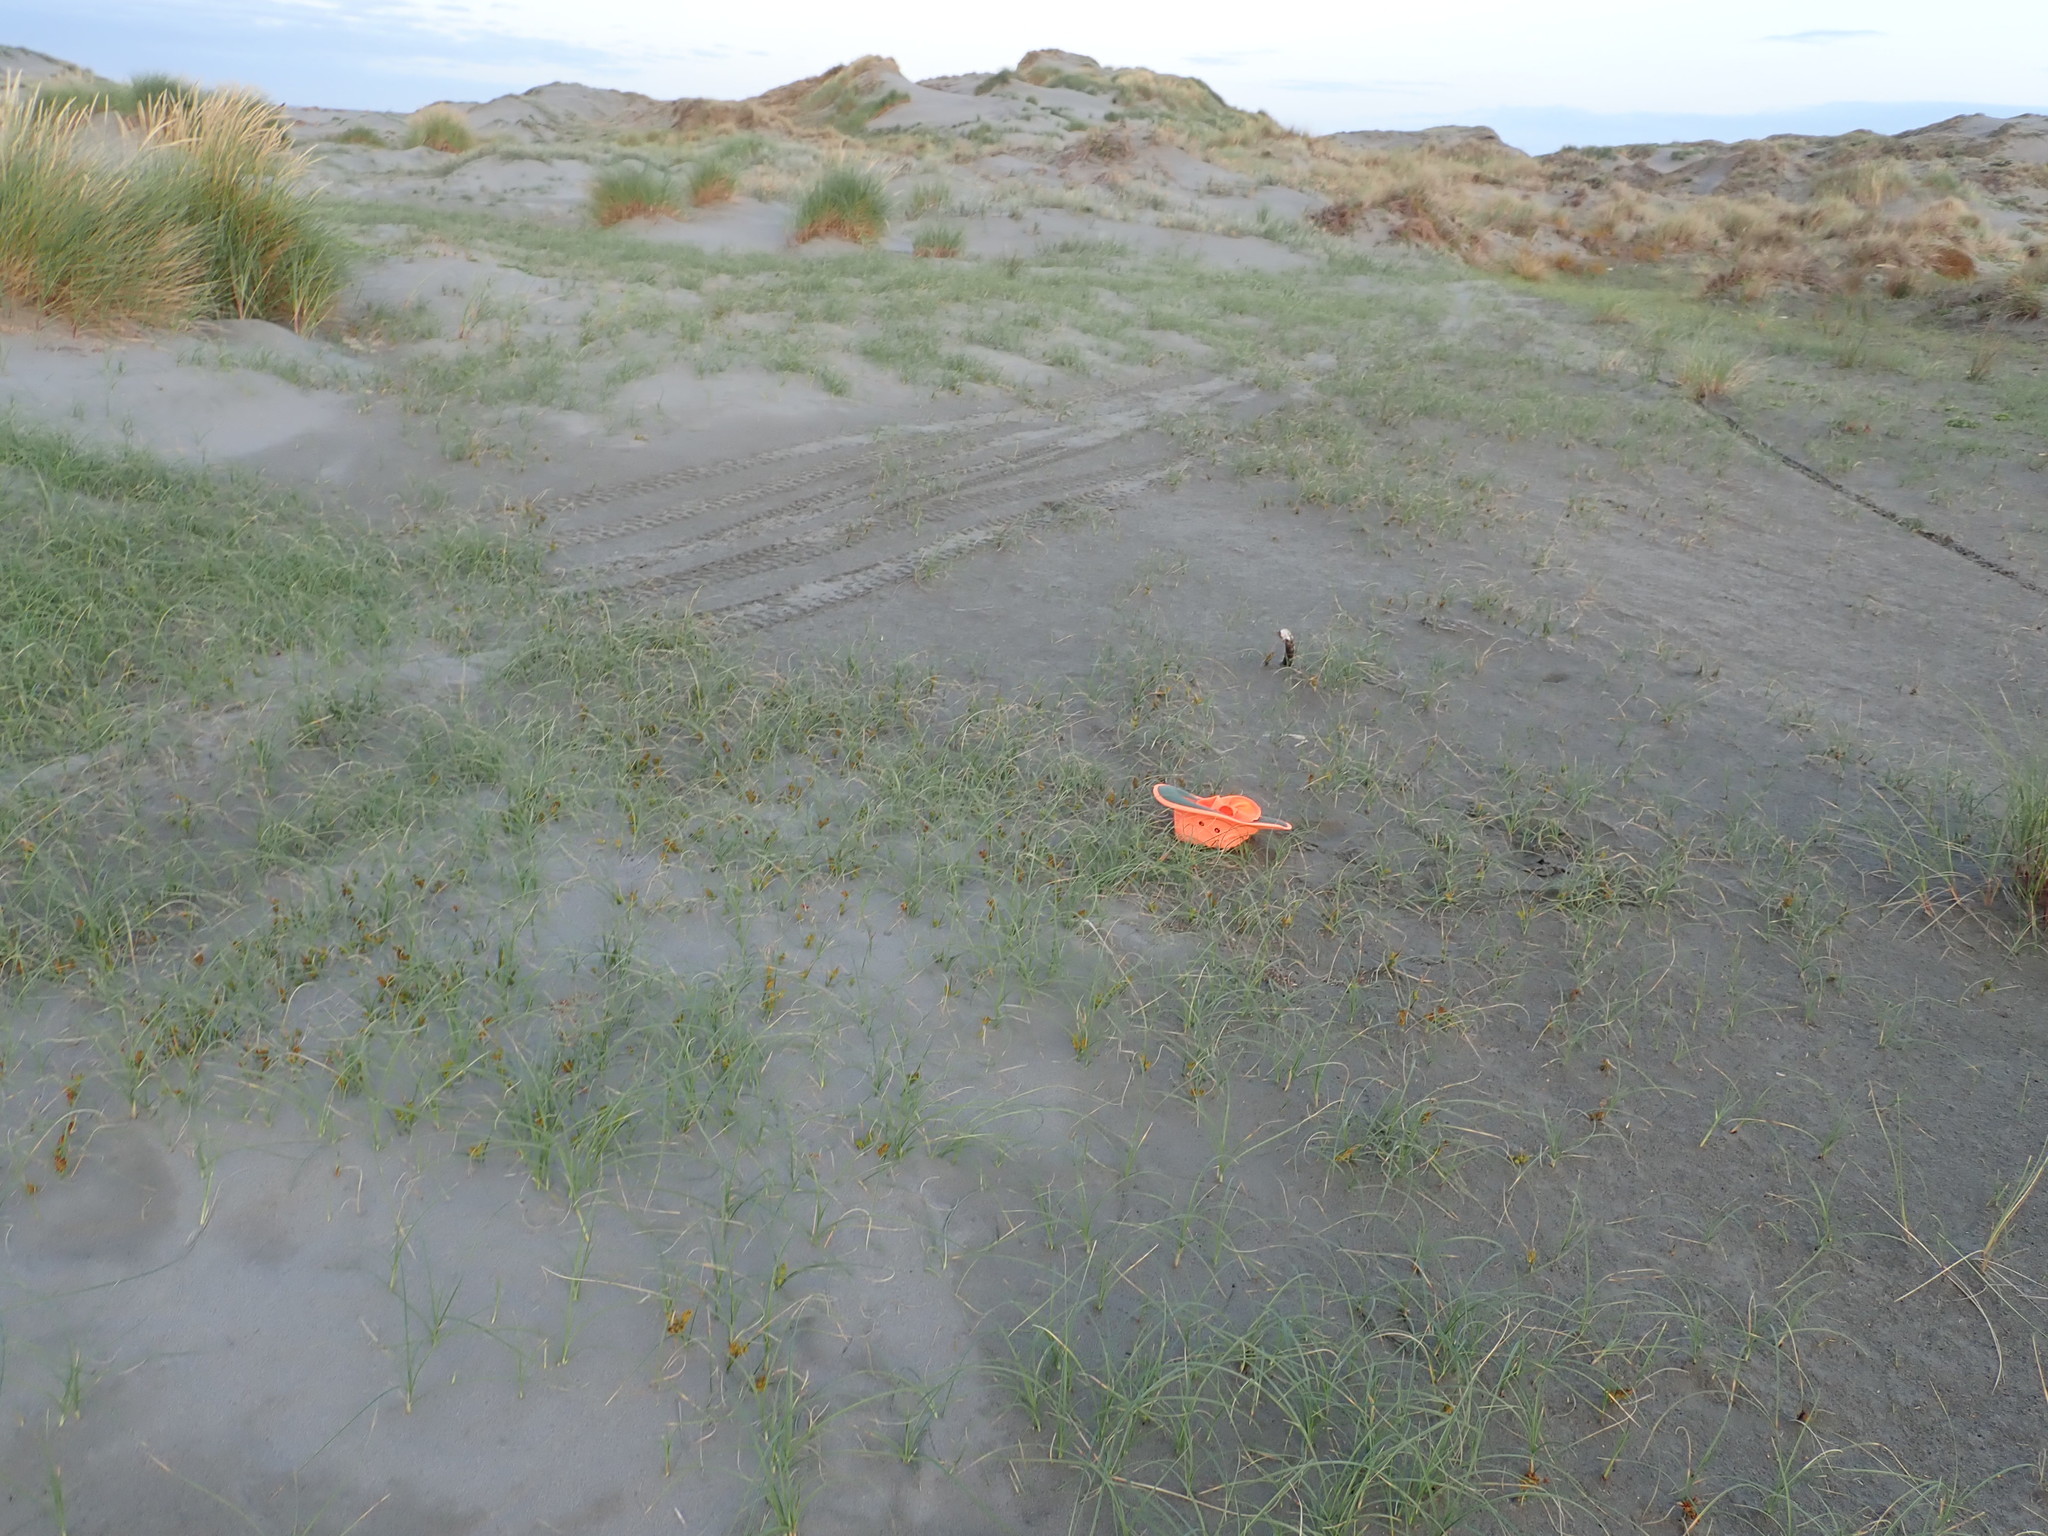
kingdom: Plantae
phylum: Tracheophyta
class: Liliopsida
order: Poales
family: Cyperaceae
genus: Carex
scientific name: Carex pumila
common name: Dwarf sedge
